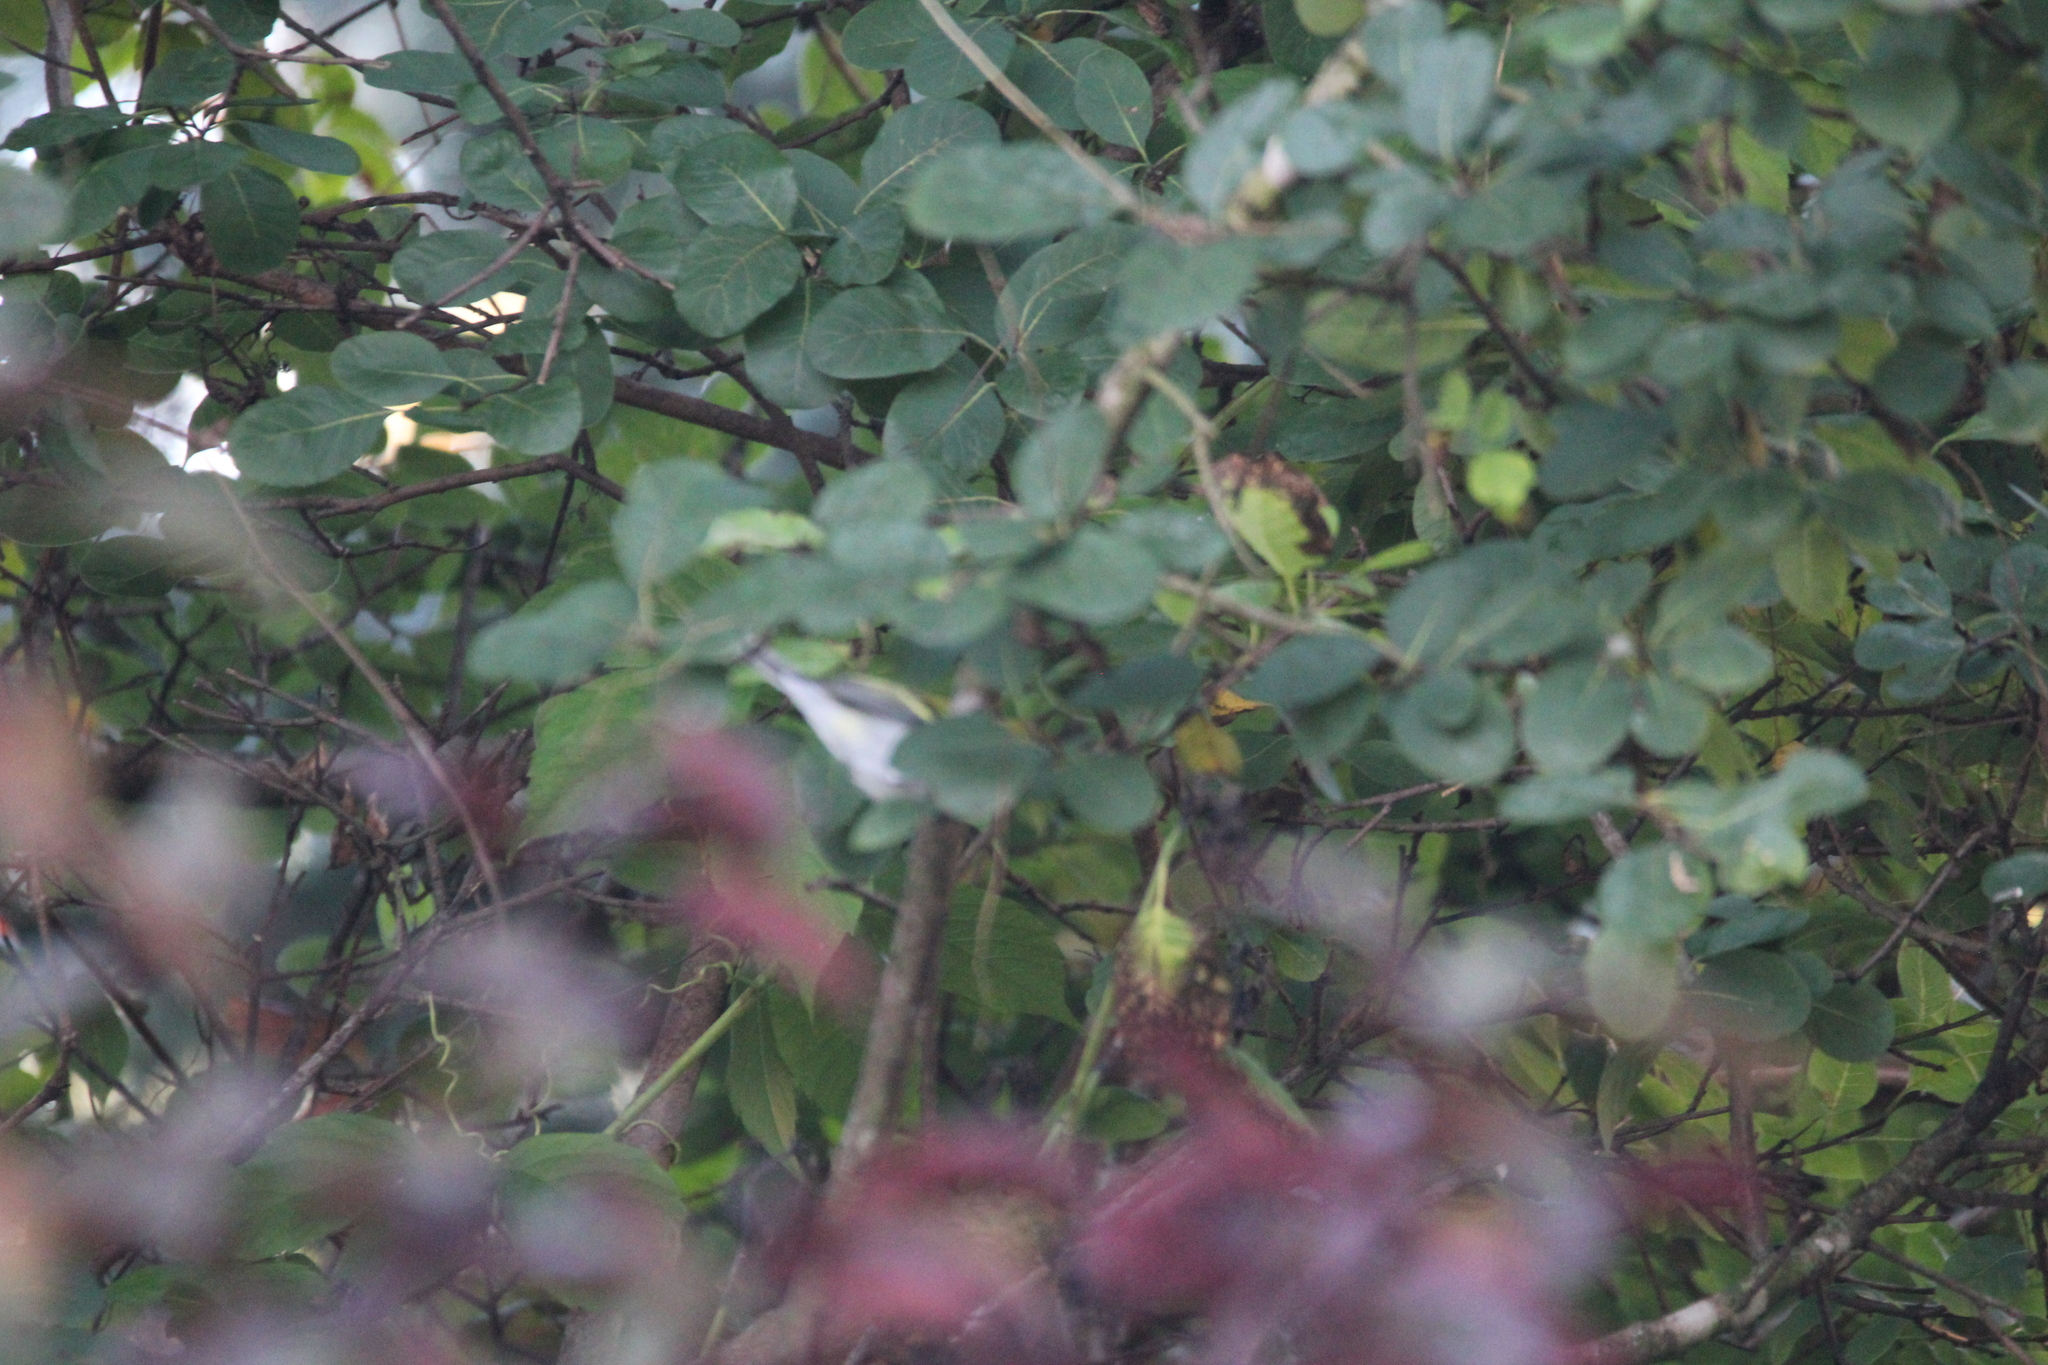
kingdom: Animalia
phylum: Chordata
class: Aves
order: Passeriformes
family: Parulidae
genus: Setophaga
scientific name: Setophaga pensylvanica
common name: Chestnut-sided warbler
